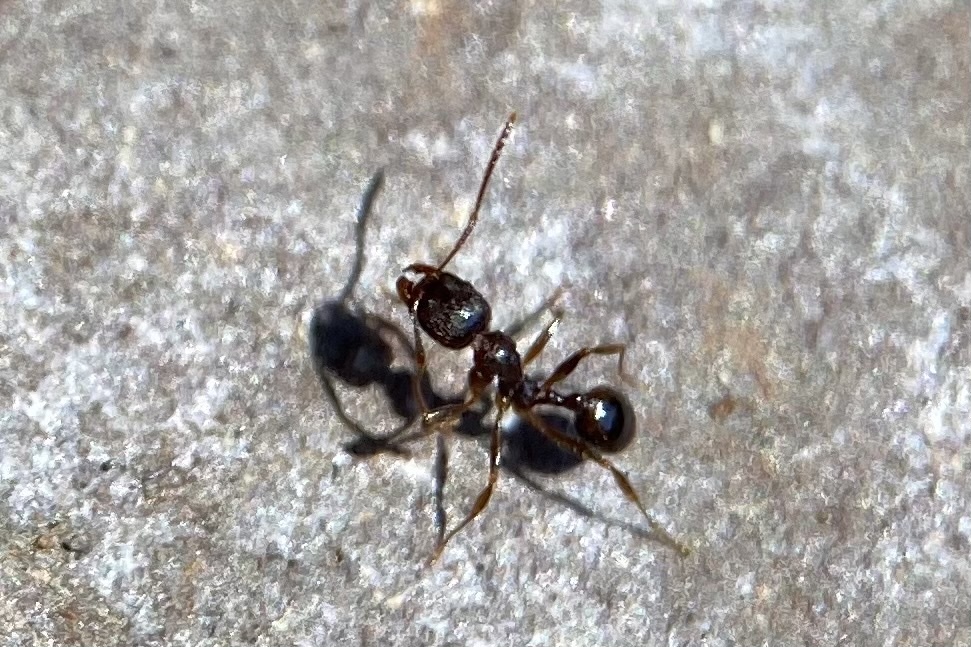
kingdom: Animalia
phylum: Arthropoda
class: Insecta
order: Hymenoptera
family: Formicidae
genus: Aphaenogaster
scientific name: Aphaenogaster occidentalis
